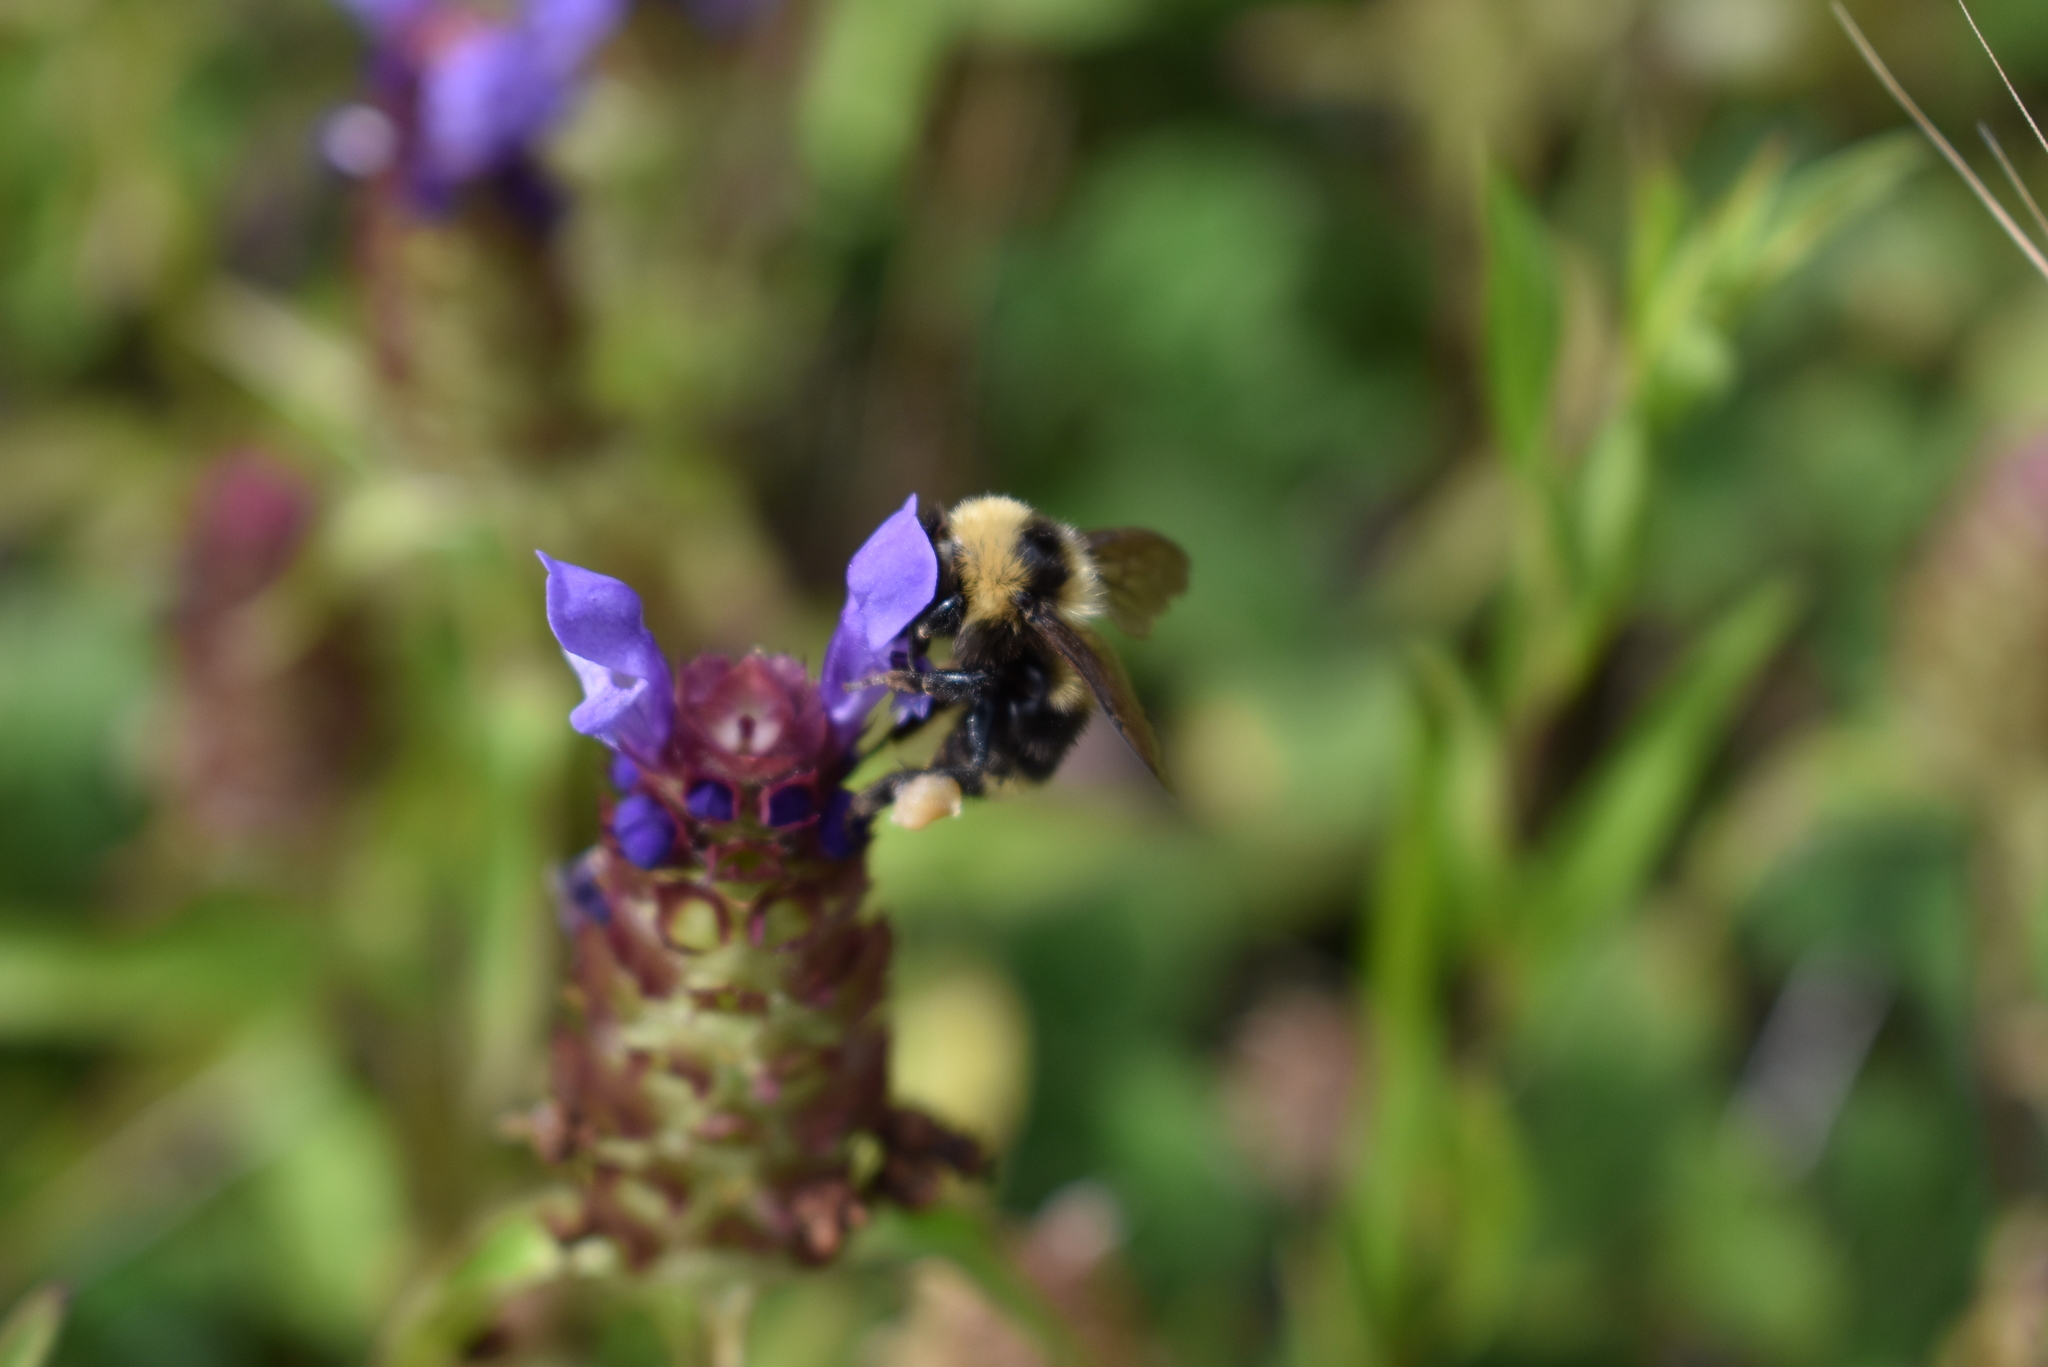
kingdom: Animalia
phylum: Arthropoda
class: Insecta
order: Hymenoptera
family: Apidae
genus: Bombus
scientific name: Bombus californicus
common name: California bumble bee
